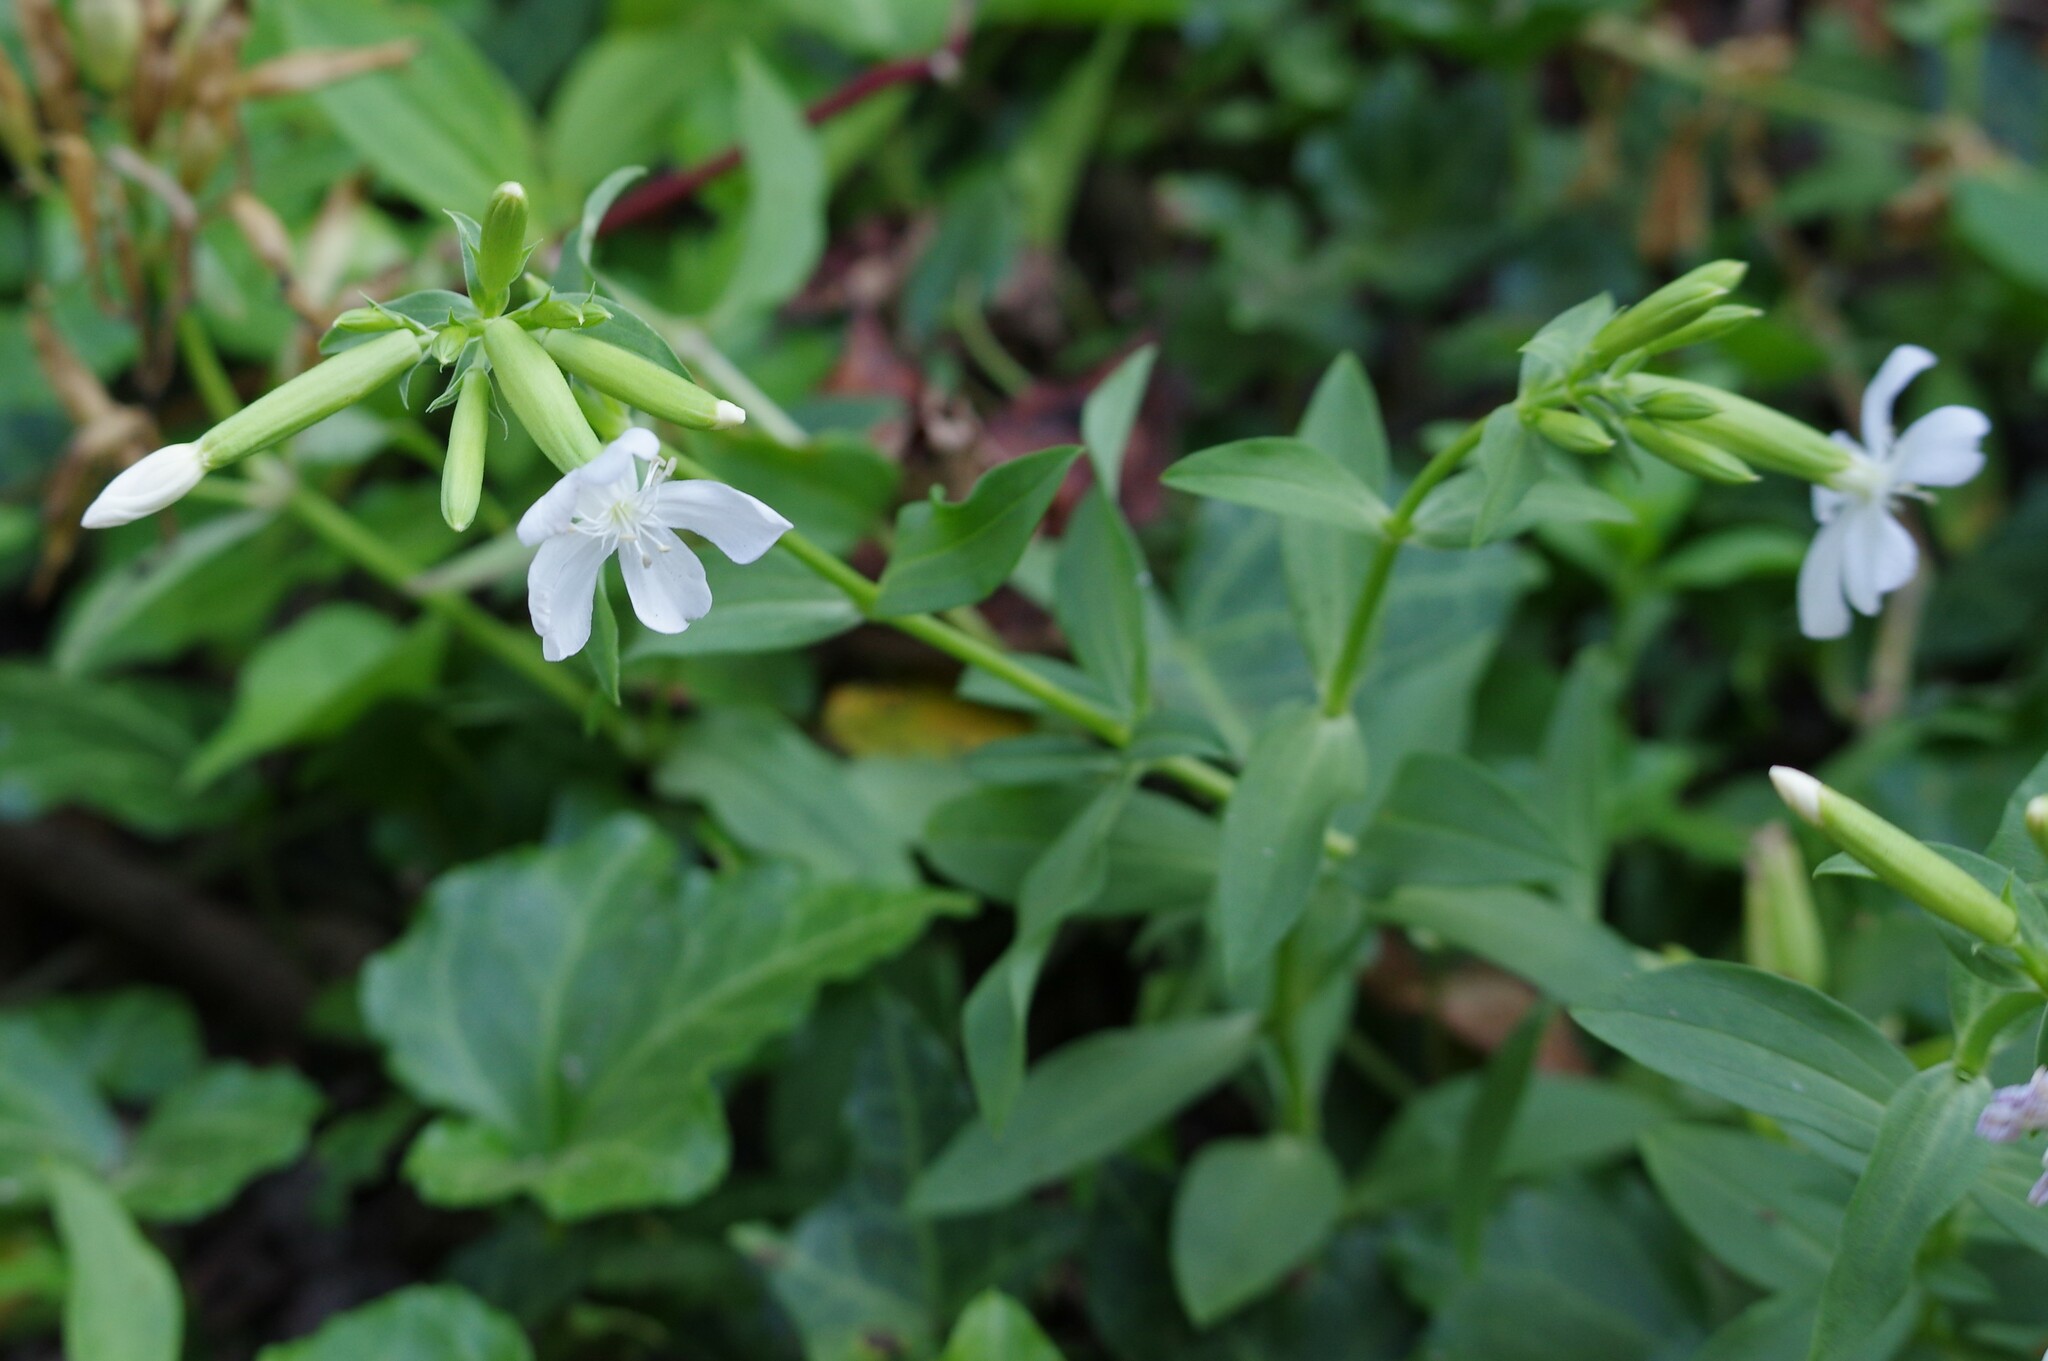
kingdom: Plantae
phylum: Tracheophyta
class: Magnoliopsida
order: Caryophyllales
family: Caryophyllaceae
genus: Saponaria
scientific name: Saponaria officinalis
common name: Soapwort
